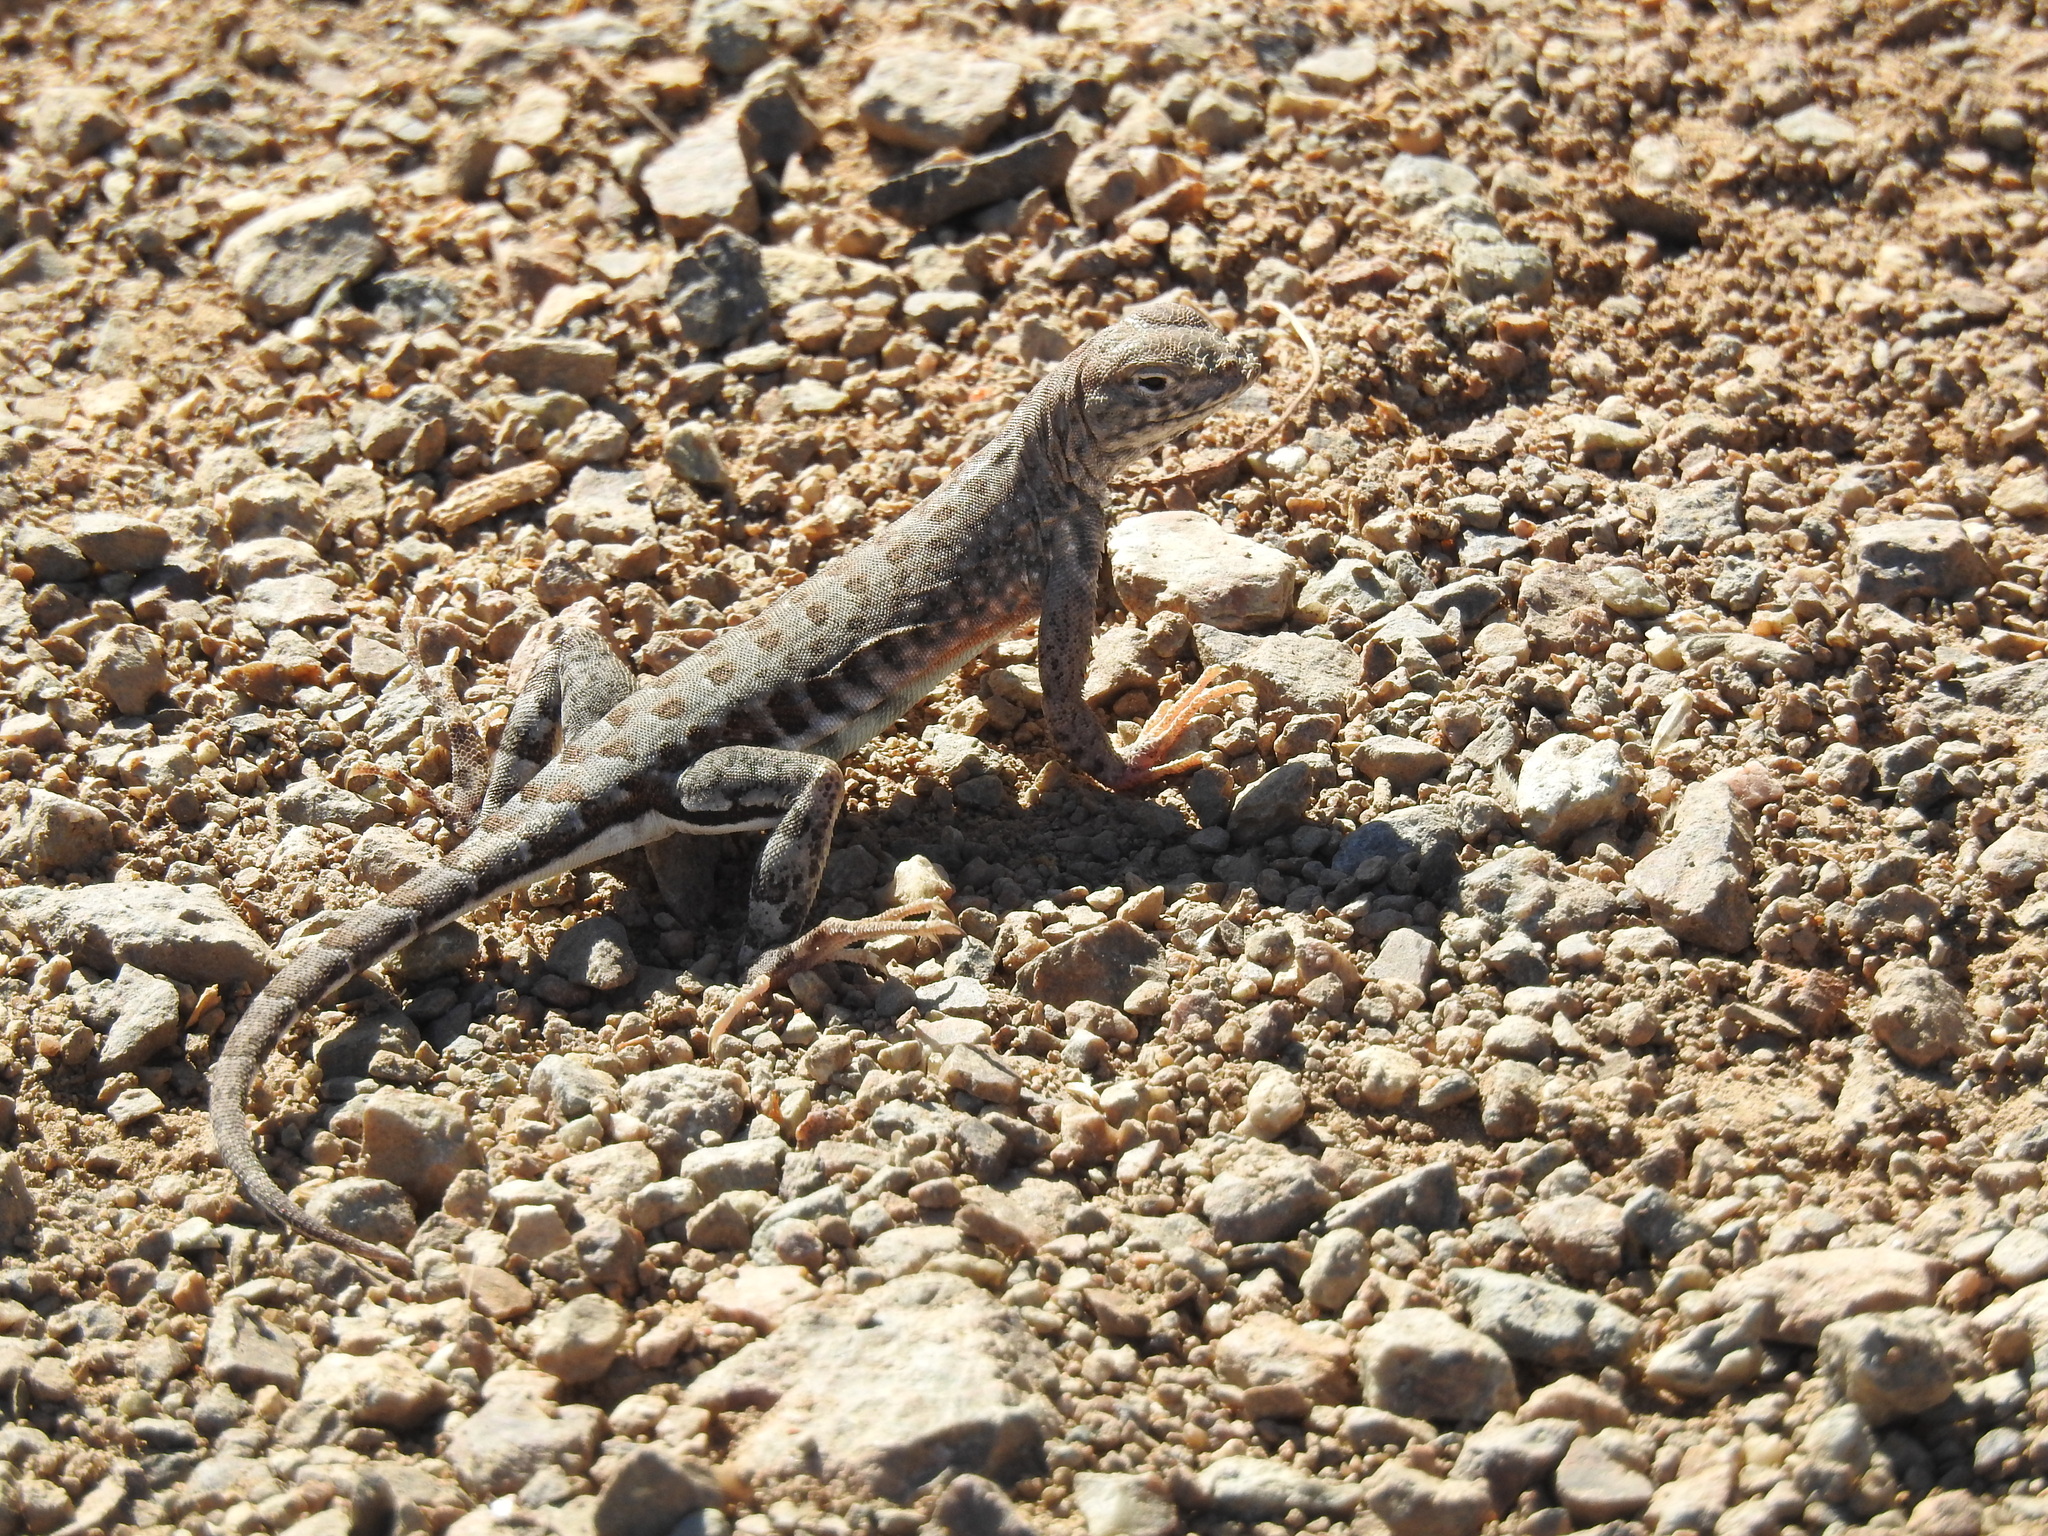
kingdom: Animalia
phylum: Chordata
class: Squamata
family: Phrynosomatidae
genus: Cophosaurus
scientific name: Cophosaurus texanus
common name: Greater earless lizard
